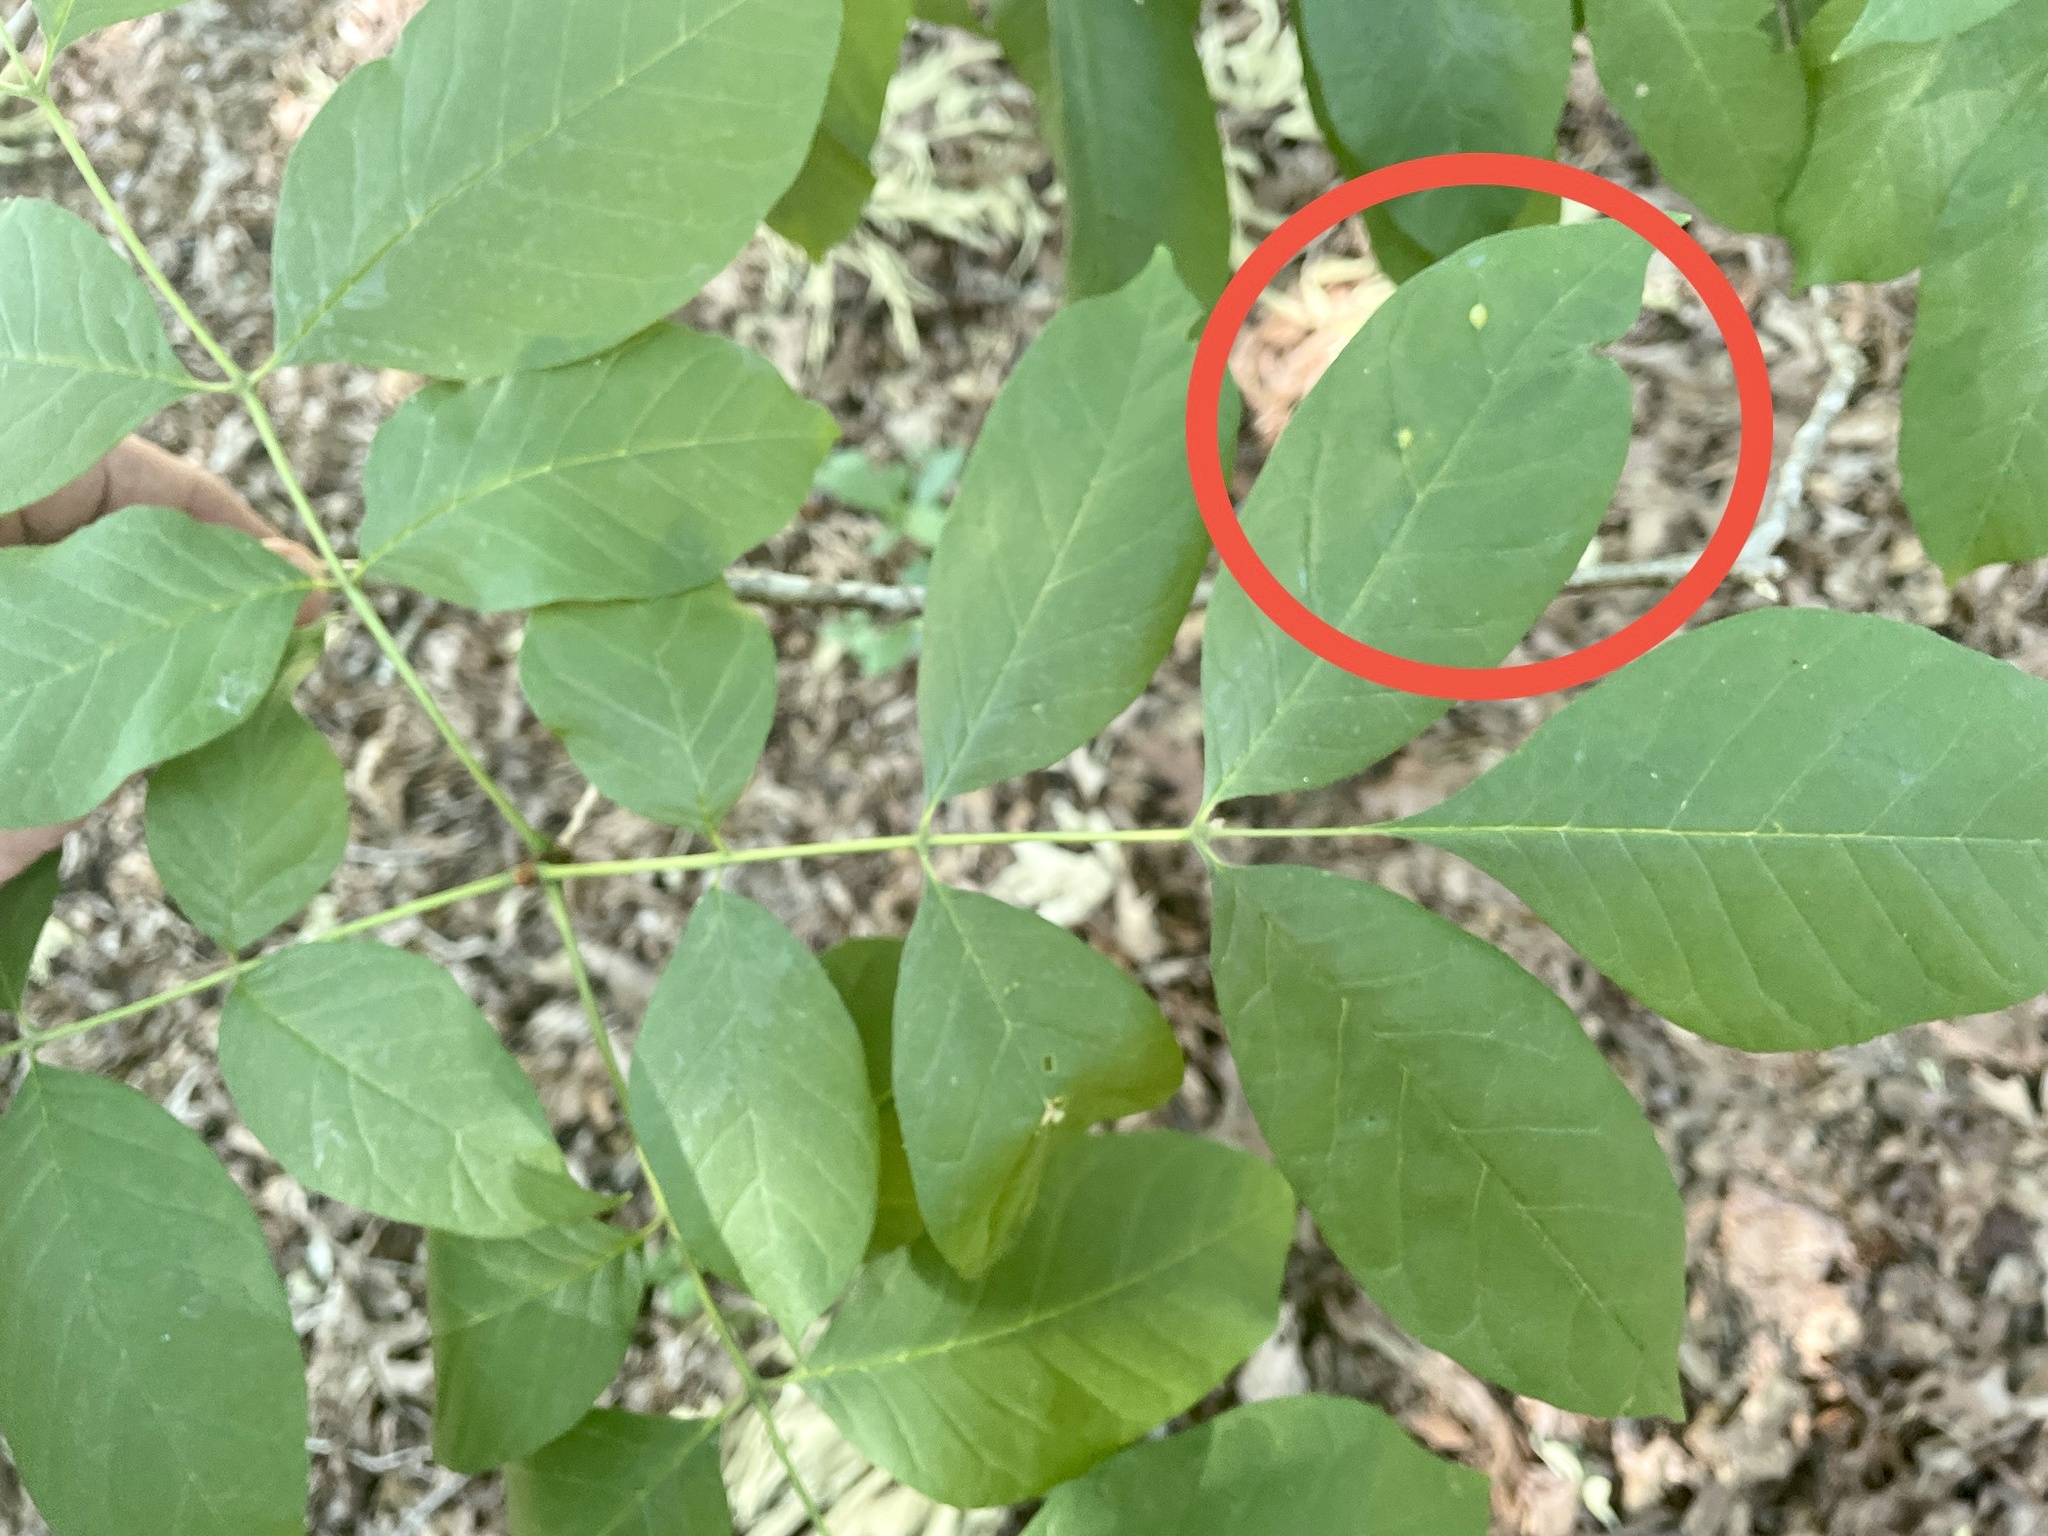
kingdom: Animalia
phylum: Arthropoda
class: Arachnida
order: Trombidiformes
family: Eriophyidae
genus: Aceria
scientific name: Aceria fraxinicola
